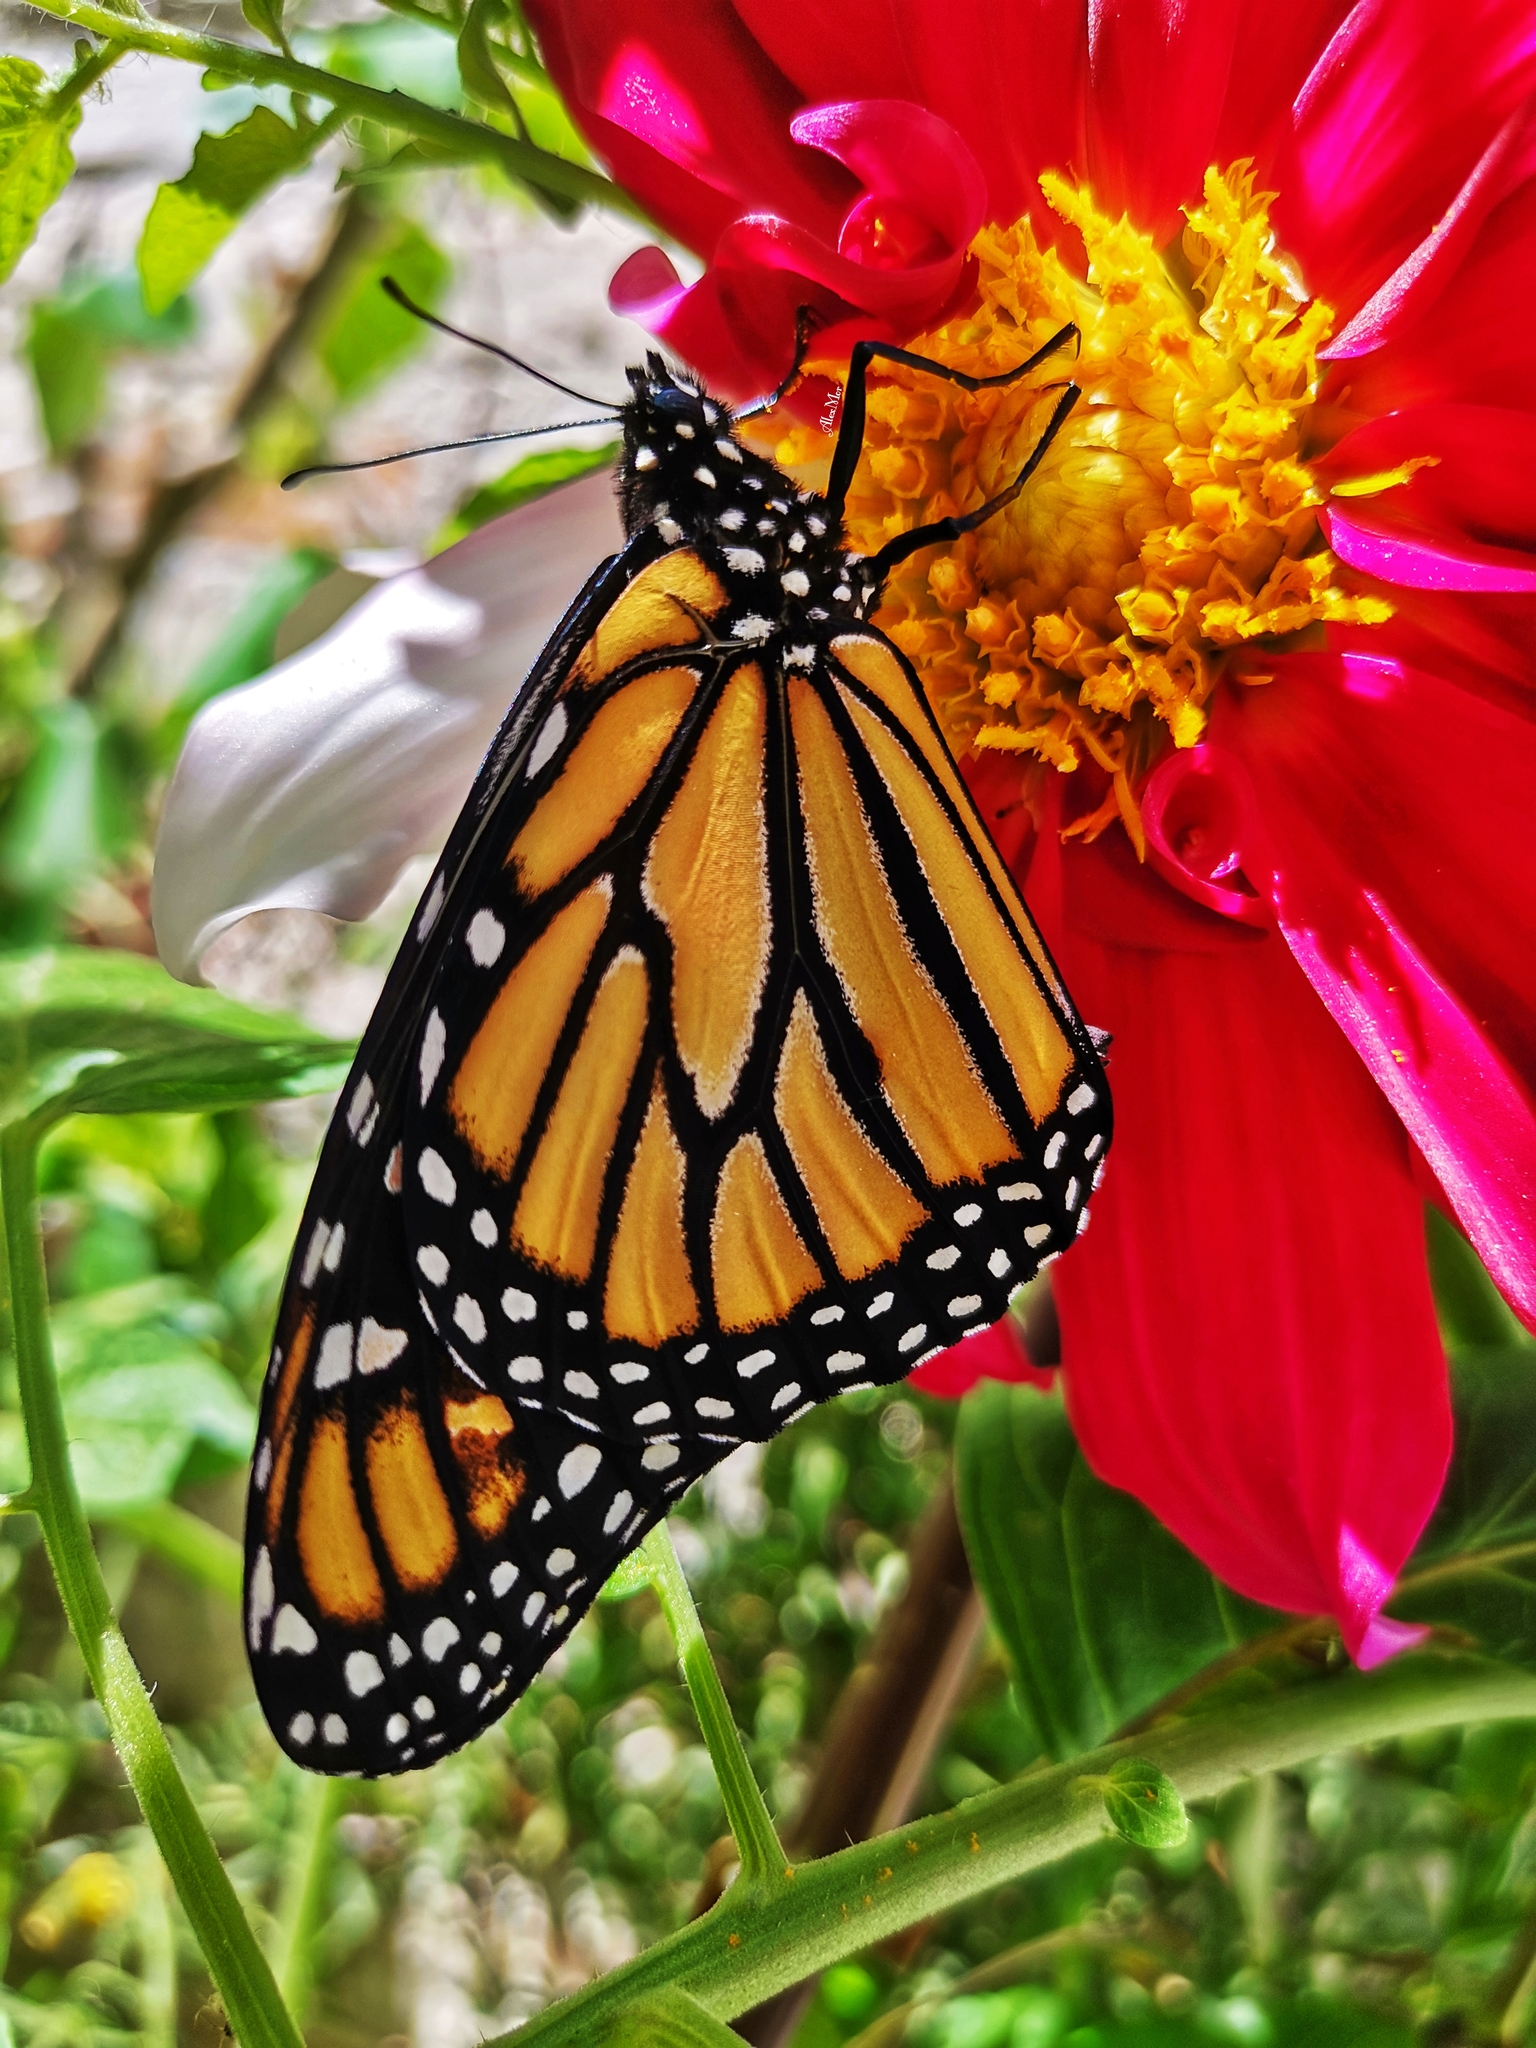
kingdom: Animalia
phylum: Arthropoda
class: Insecta
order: Lepidoptera
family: Nymphalidae
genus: Danaus
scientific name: Danaus plexippus
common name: Monarch
